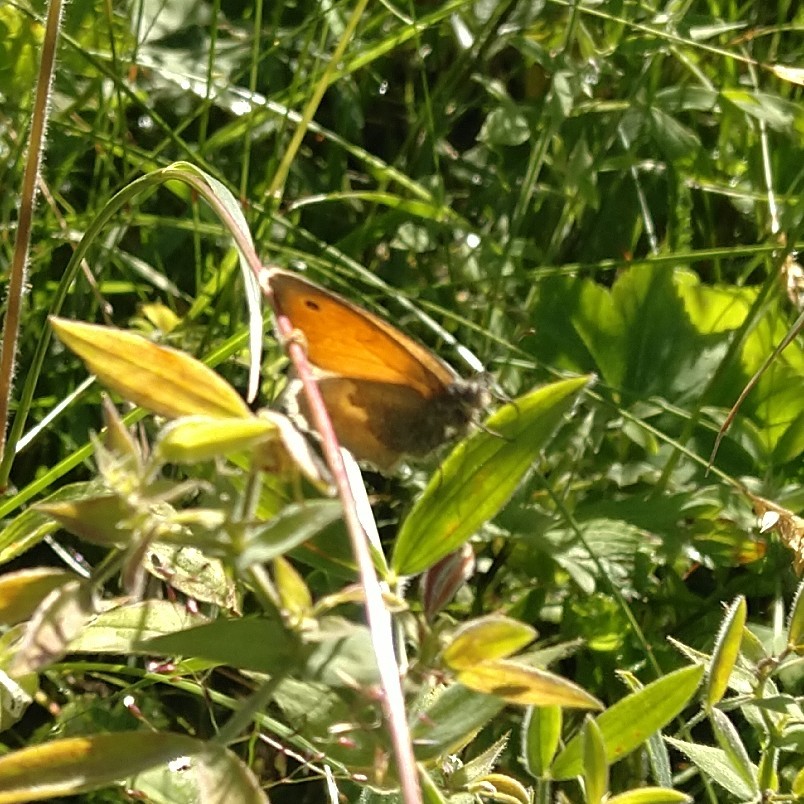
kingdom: Animalia
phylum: Arthropoda
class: Insecta
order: Lepidoptera
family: Nymphalidae
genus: Coenonympha
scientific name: Coenonympha pamphilus
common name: Small heath
